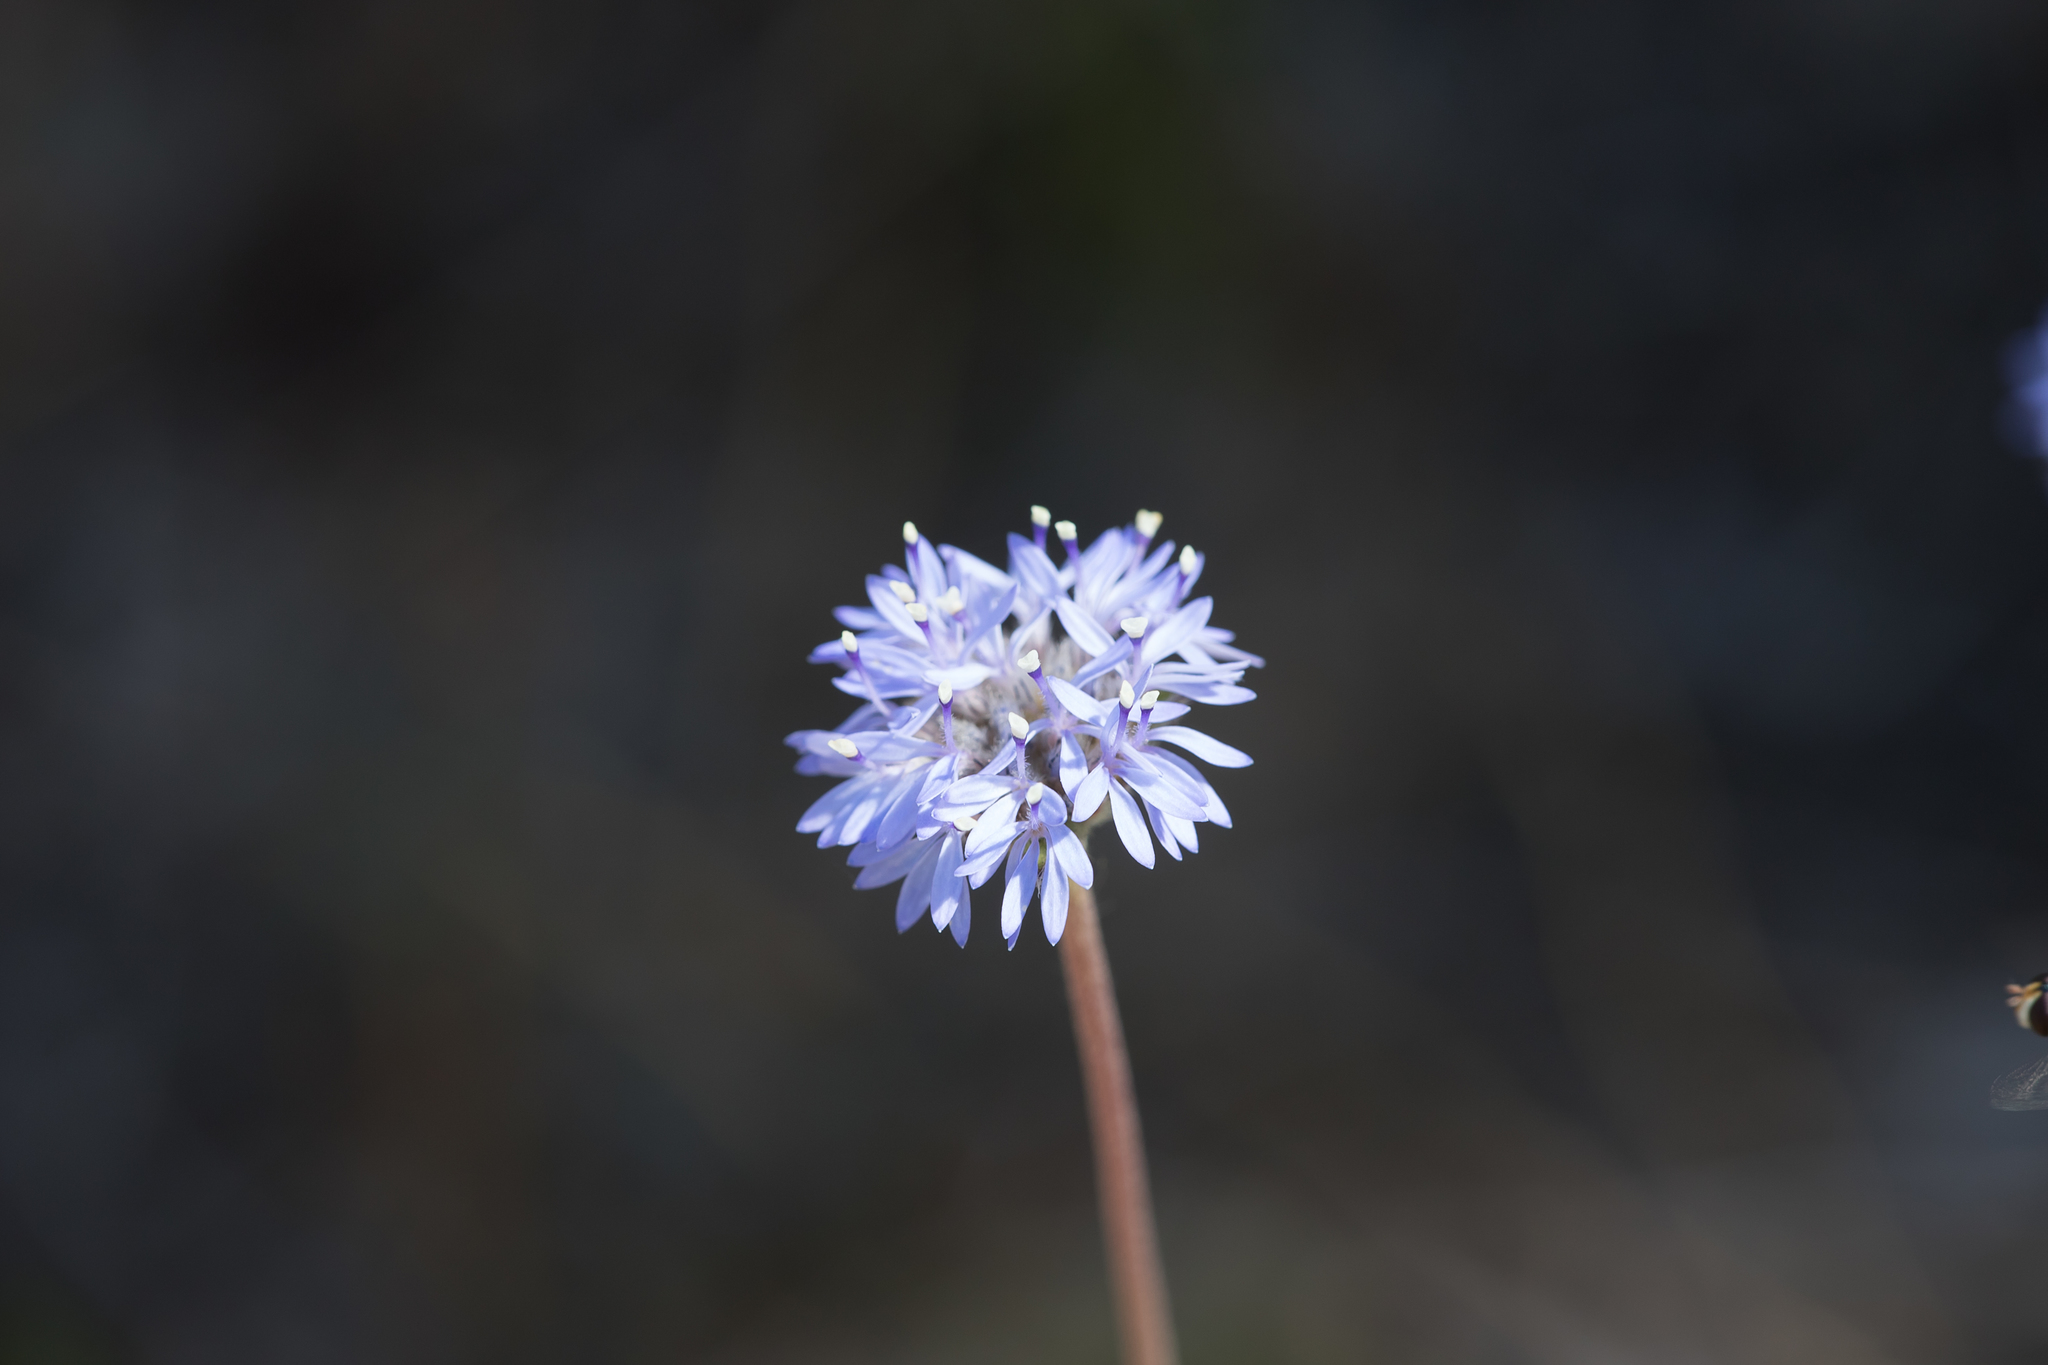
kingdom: Plantae
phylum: Tracheophyta
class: Magnoliopsida
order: Asterales
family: Goodeniaceae
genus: Brunonia
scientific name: Brunonia australis
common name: Blue pincushion
